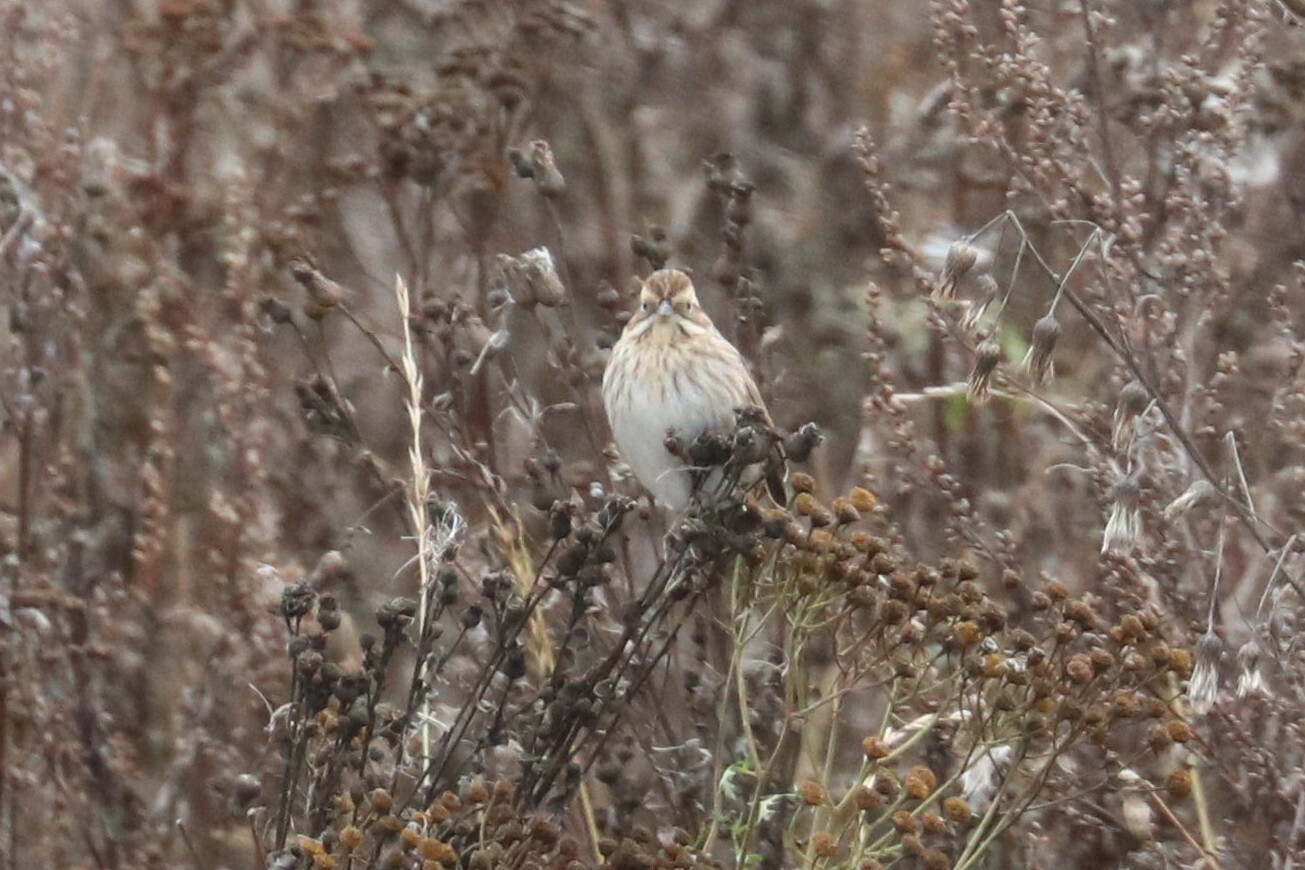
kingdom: Animalia
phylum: Chordata
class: Aves
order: Passeriformes
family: Emberizidae
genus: Emberiza
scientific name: Emberiza schoeniclus
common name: Reed bunting
